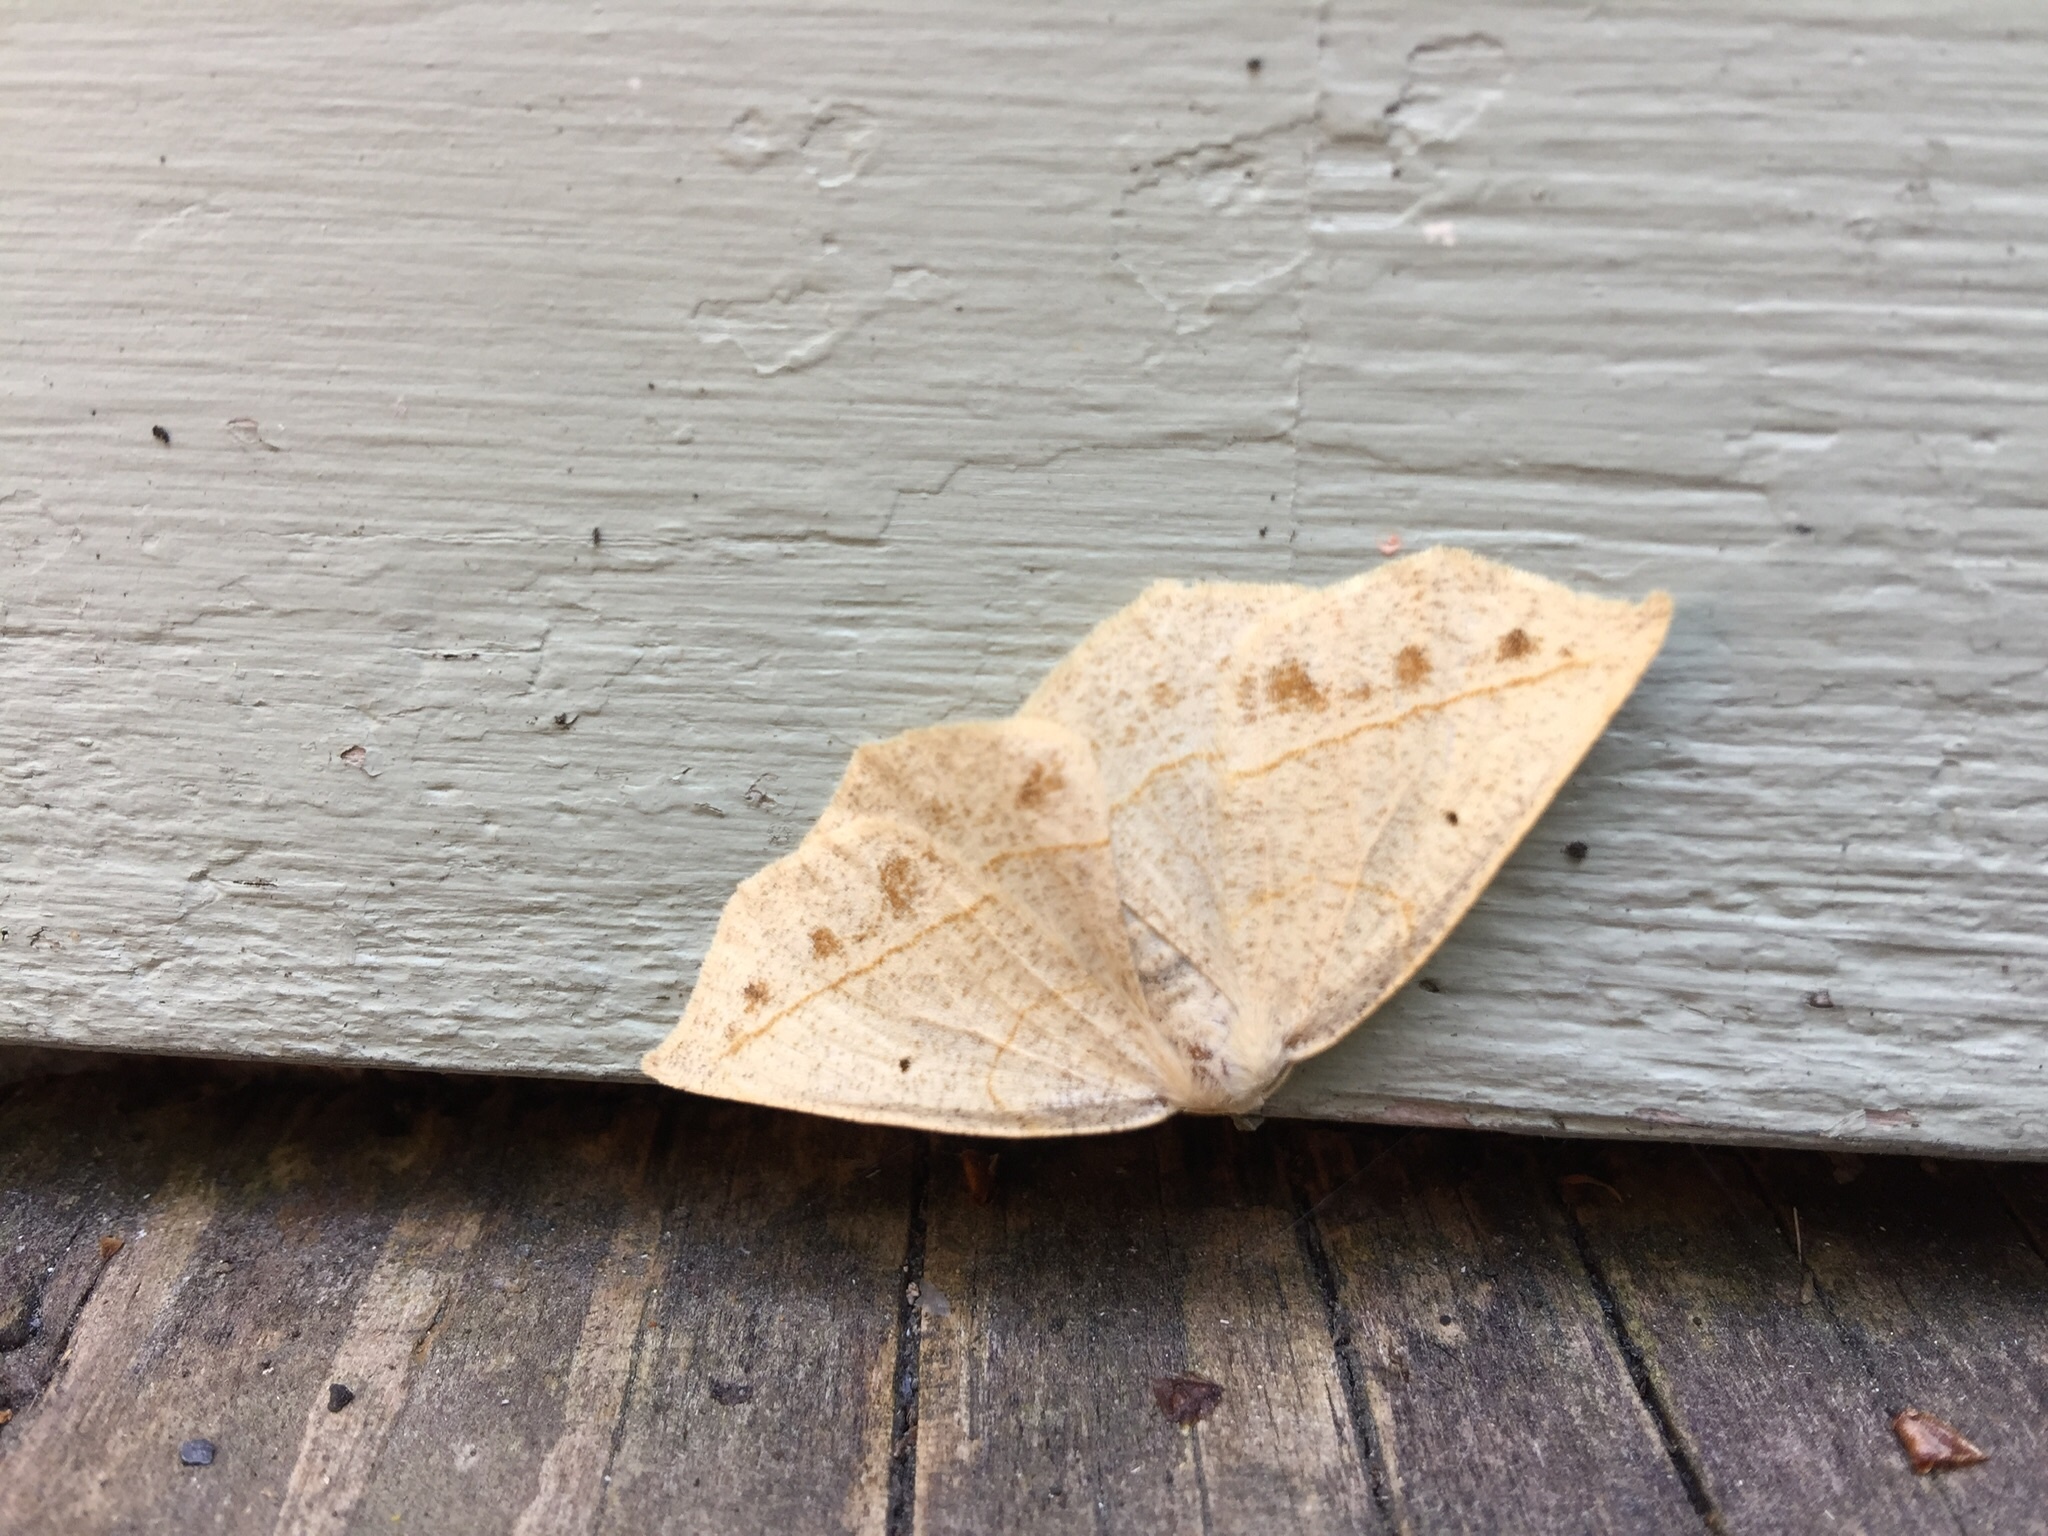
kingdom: Animalia
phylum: Arthropoda
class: Insecta
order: Lepidoptera
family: Geometridae
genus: Eusarca
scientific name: Eusarca confusaria
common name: Confused eusarca
